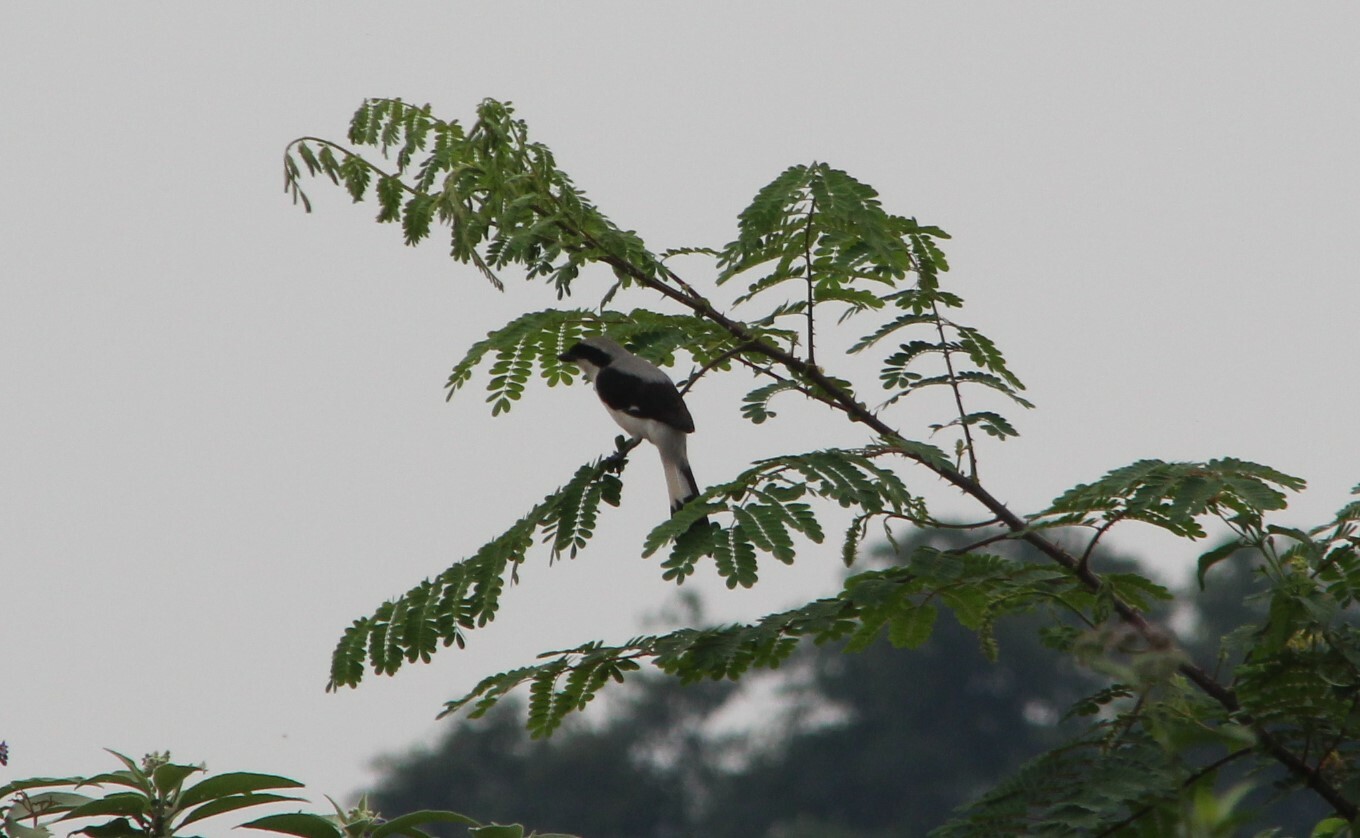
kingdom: Animalia
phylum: Chordata
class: Aves
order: Passeriformes
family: Laniidae
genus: Lanius
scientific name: Lanius excubitoroides
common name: Grey-backed fiscal
